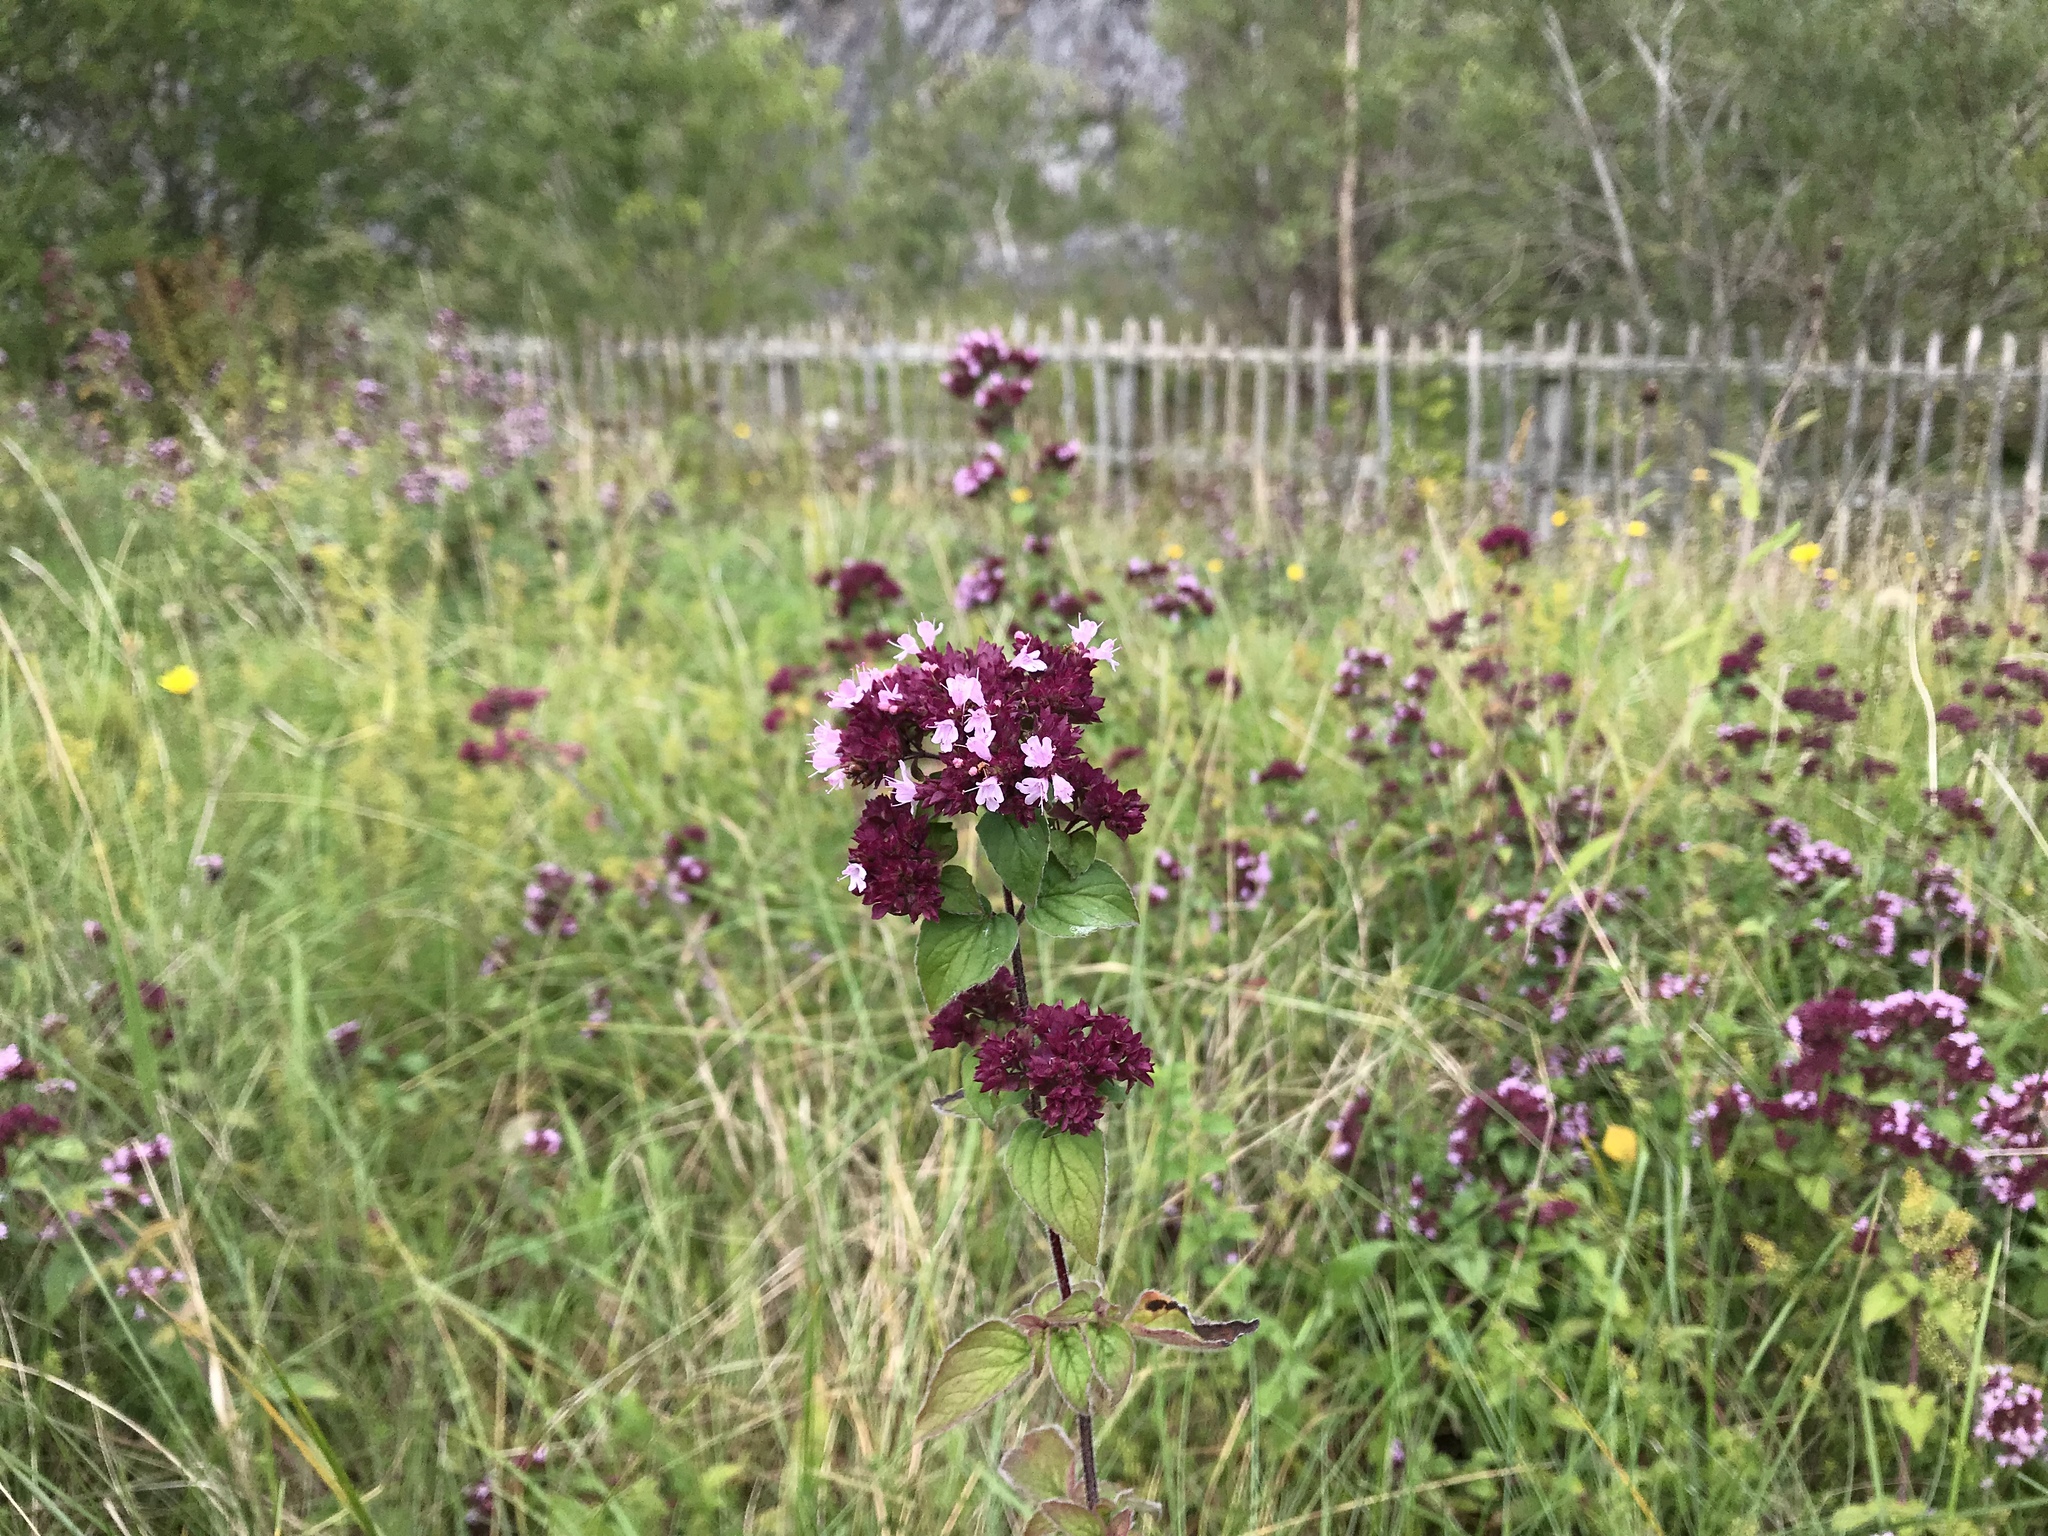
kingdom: Plantae
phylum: Tracheophyta
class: Magnoliopsida
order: Lamiales
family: Lamiaceae
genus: Origanum
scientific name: Origanum vulgare
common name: Wild marjoram
